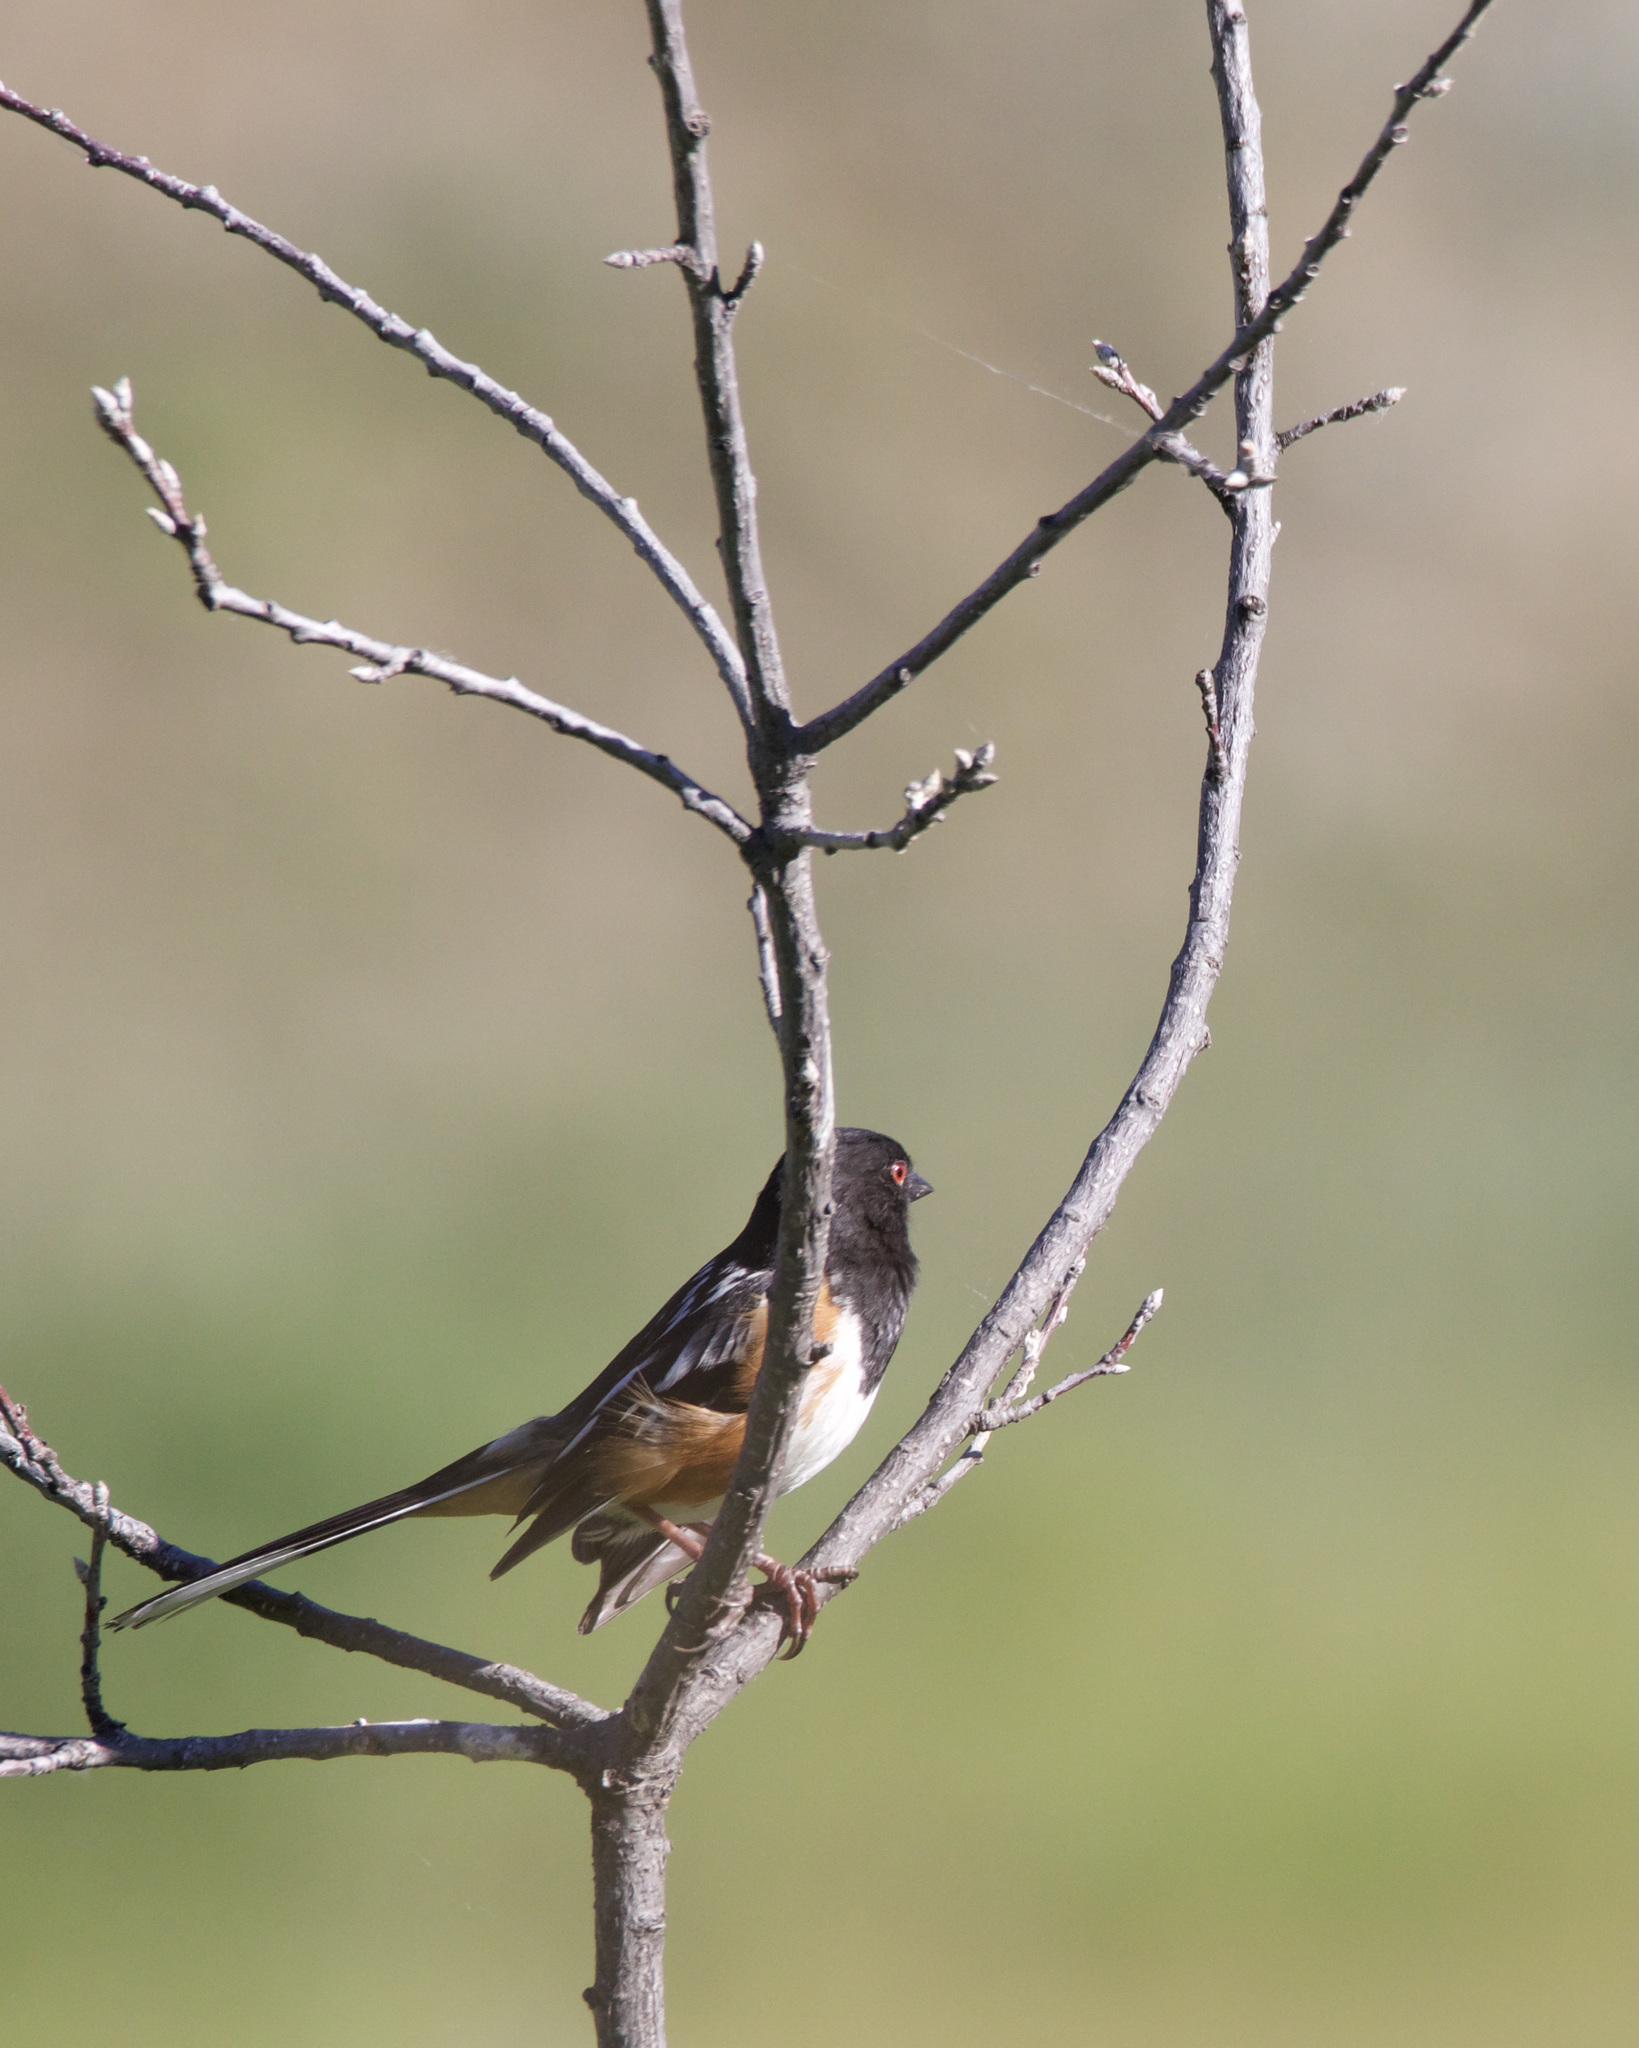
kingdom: Animalia
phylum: Chordata
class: Aves
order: Passeriformes
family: Passerellidae
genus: Pipilo
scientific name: Pipilo maculatus
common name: Spotted towhee
